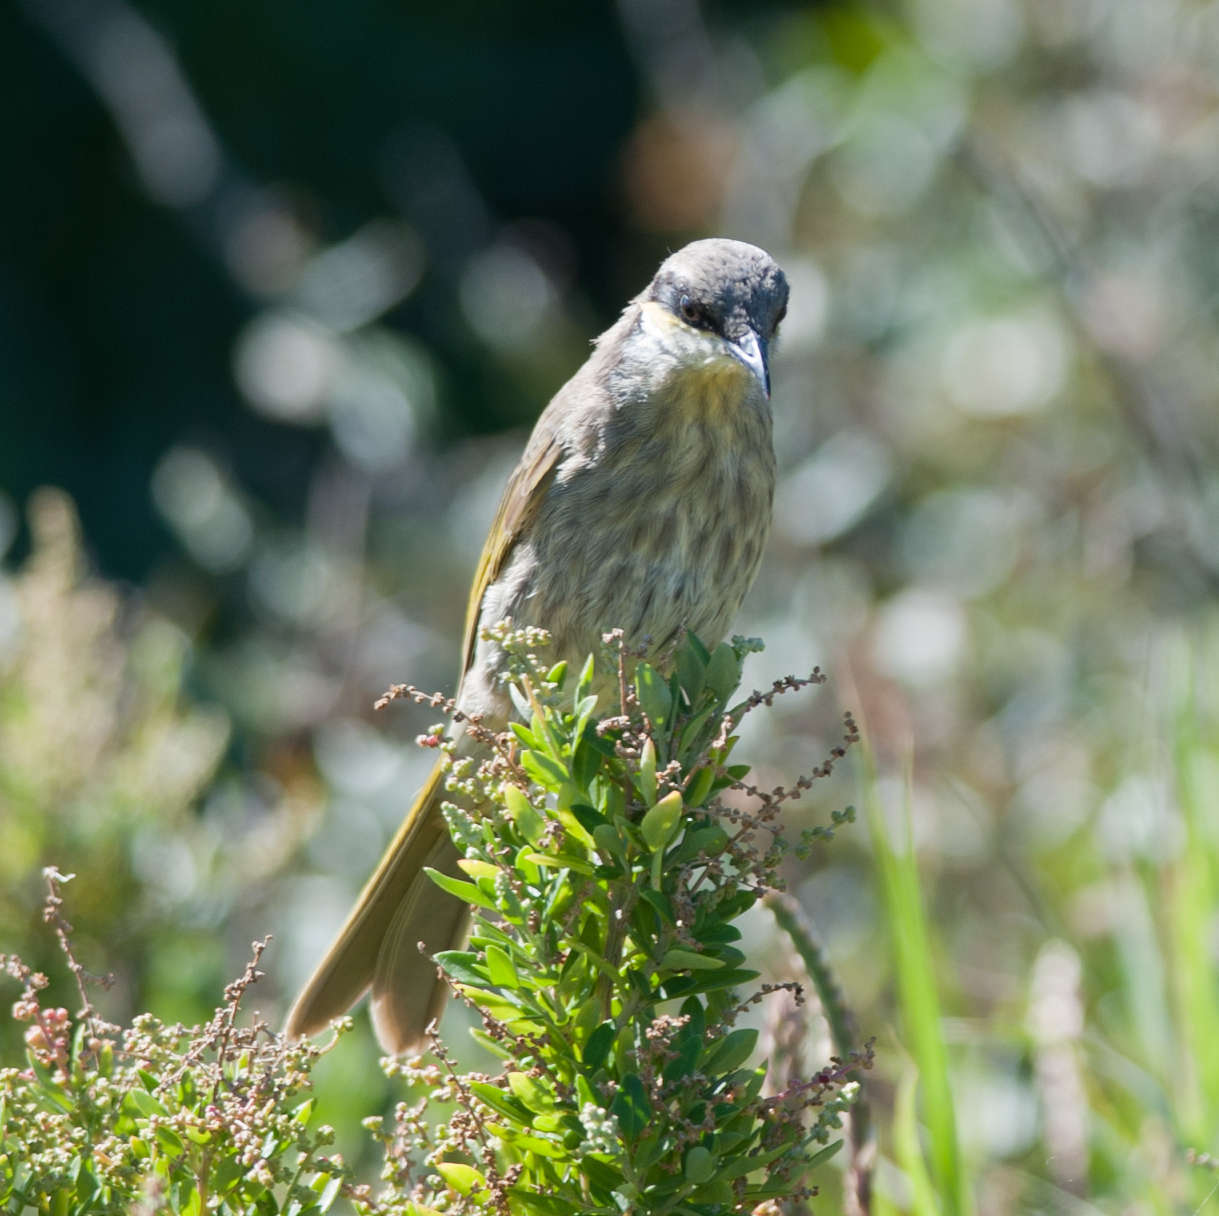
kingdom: Animalia
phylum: Chordata
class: Aves
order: Passeriformes
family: Meliphagidae
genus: Gavicalis
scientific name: Gavicalis virescens
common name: Singing honeyeater
